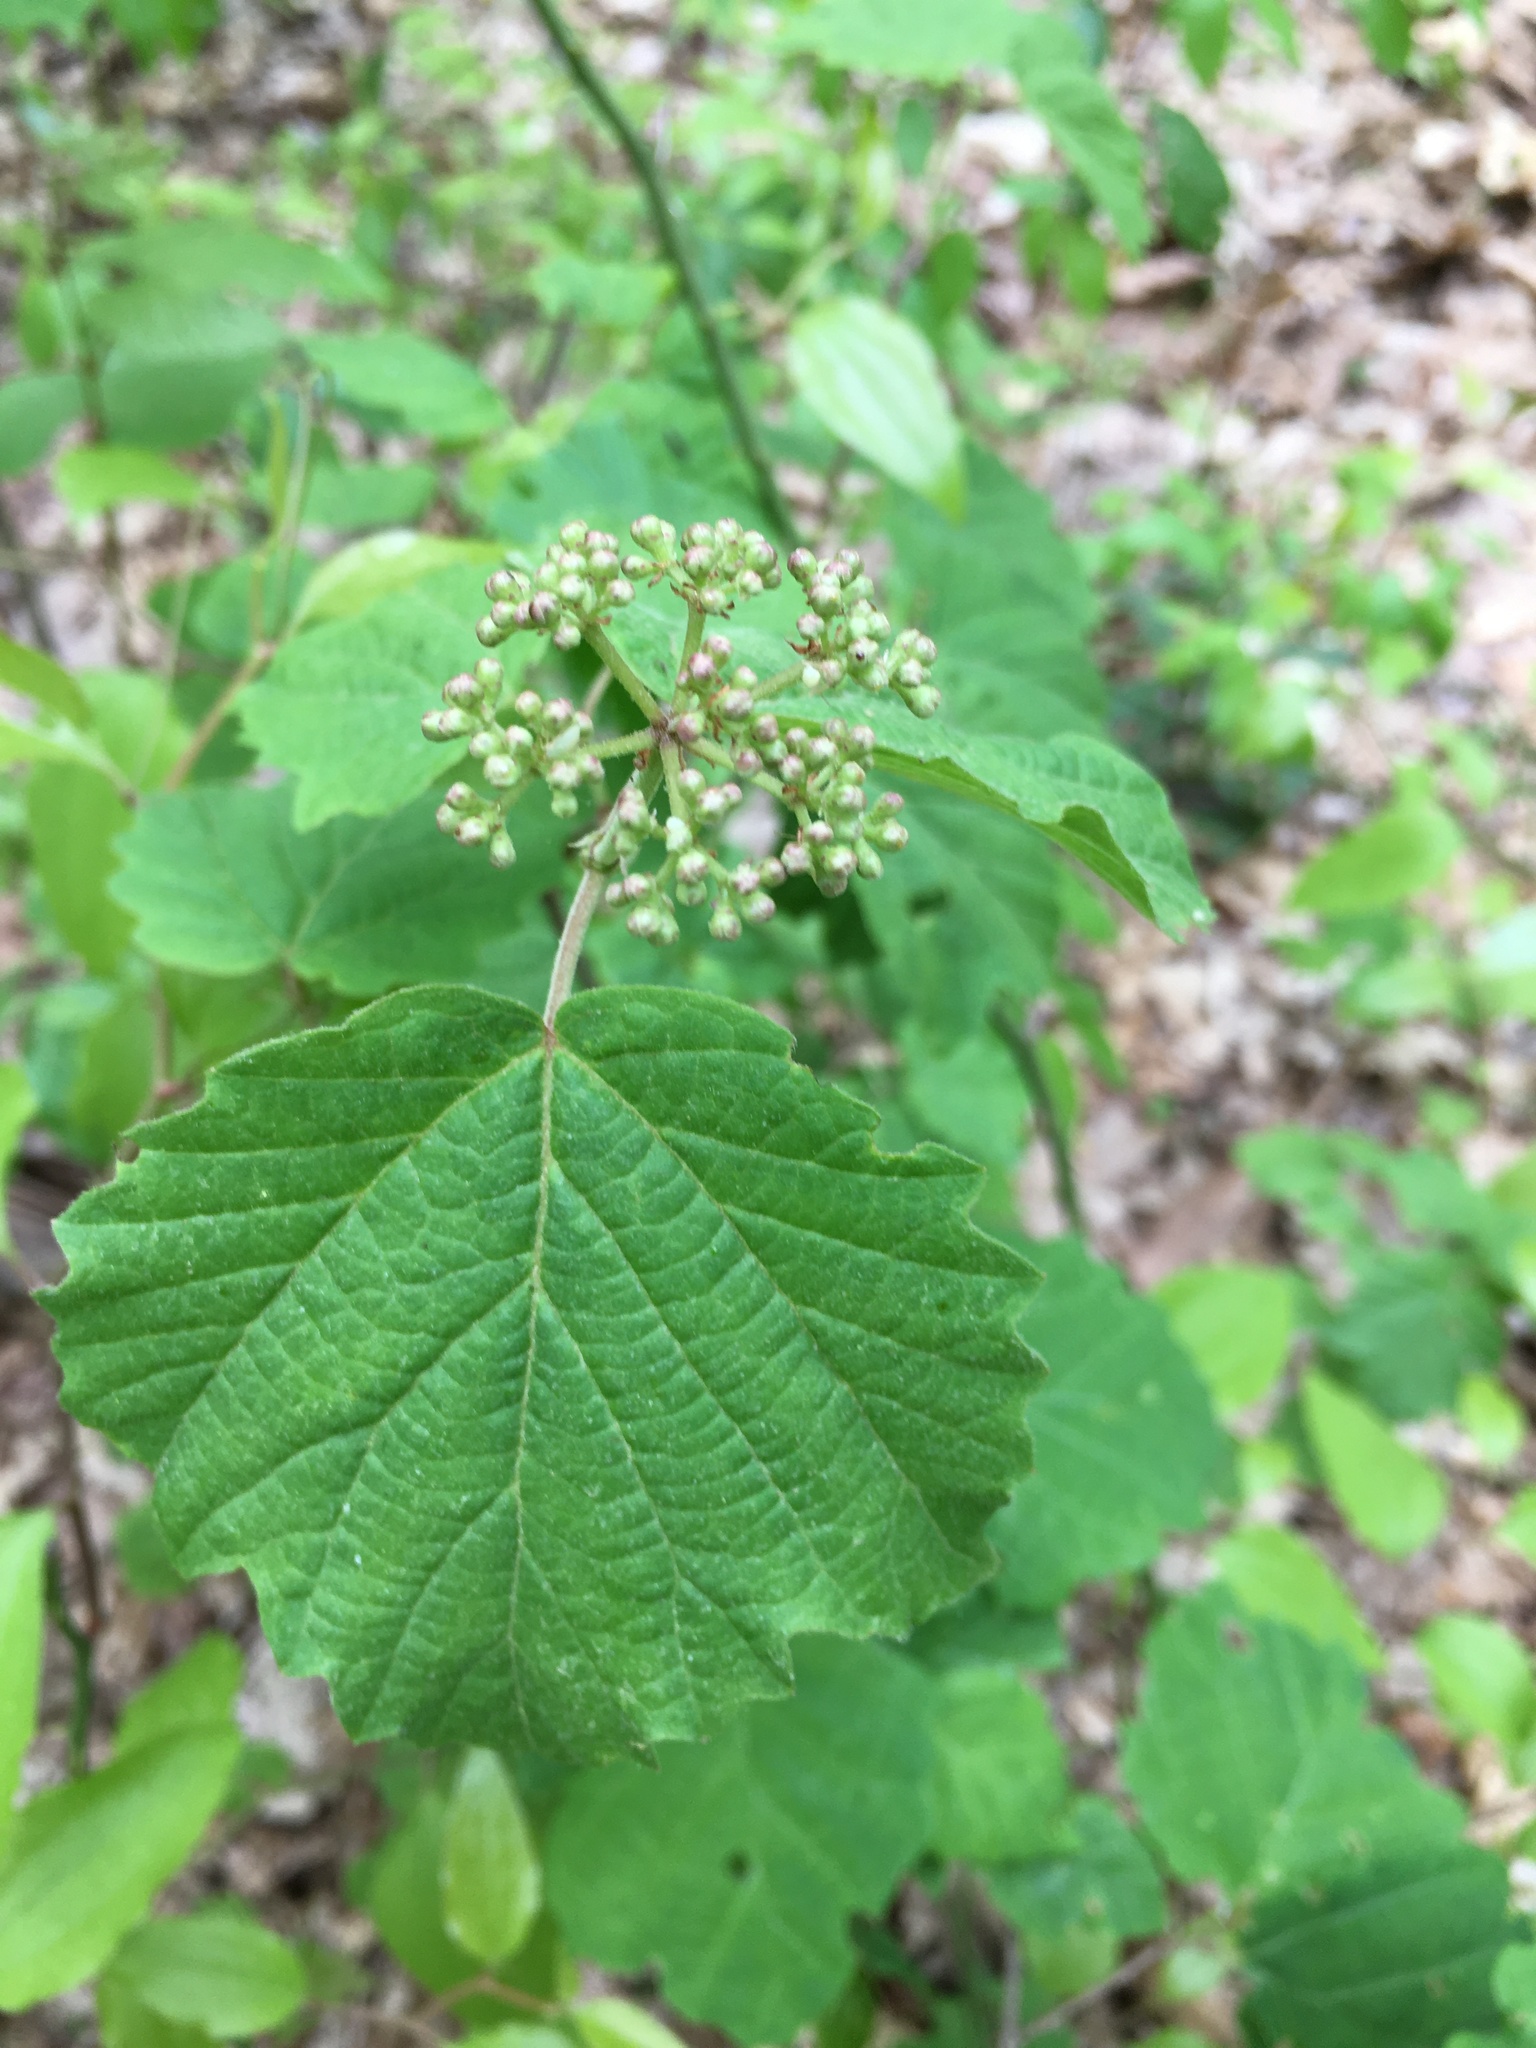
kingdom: Plantae
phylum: Tracheophyta
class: Magnoliopsida
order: Dipsacales
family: Viburnaceae
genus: Viburnum
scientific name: Viburnum acerifolium
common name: Dockmackie
